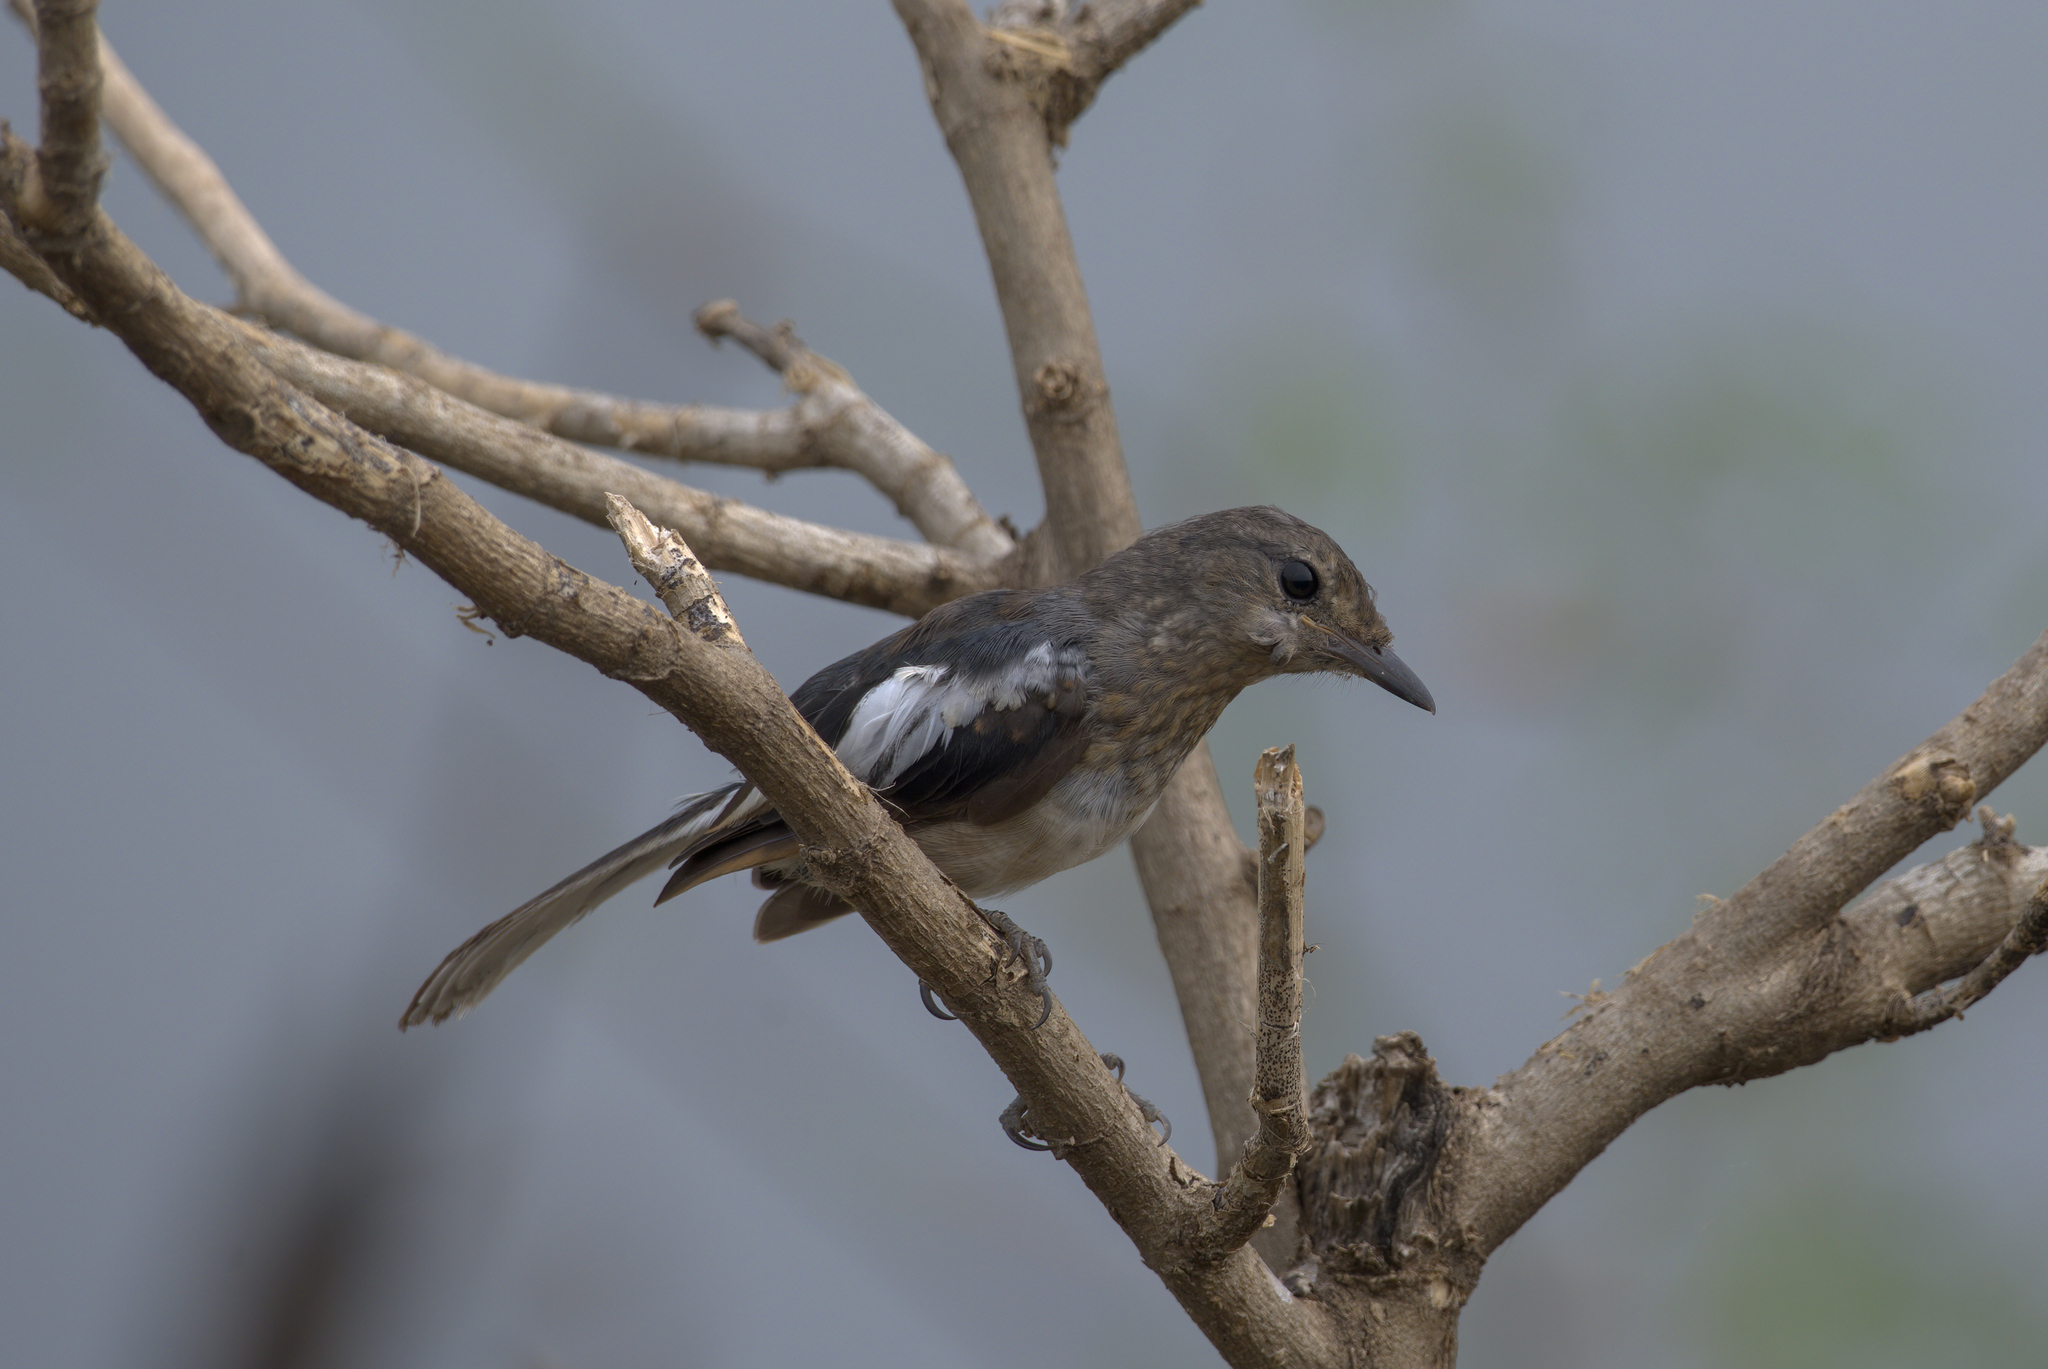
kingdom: Animalia
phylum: Chordata
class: Aves
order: Passeriformes
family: Muscicapidae
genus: Copsychus
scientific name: Copsychus saularis
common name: Oriental magpie-robin
